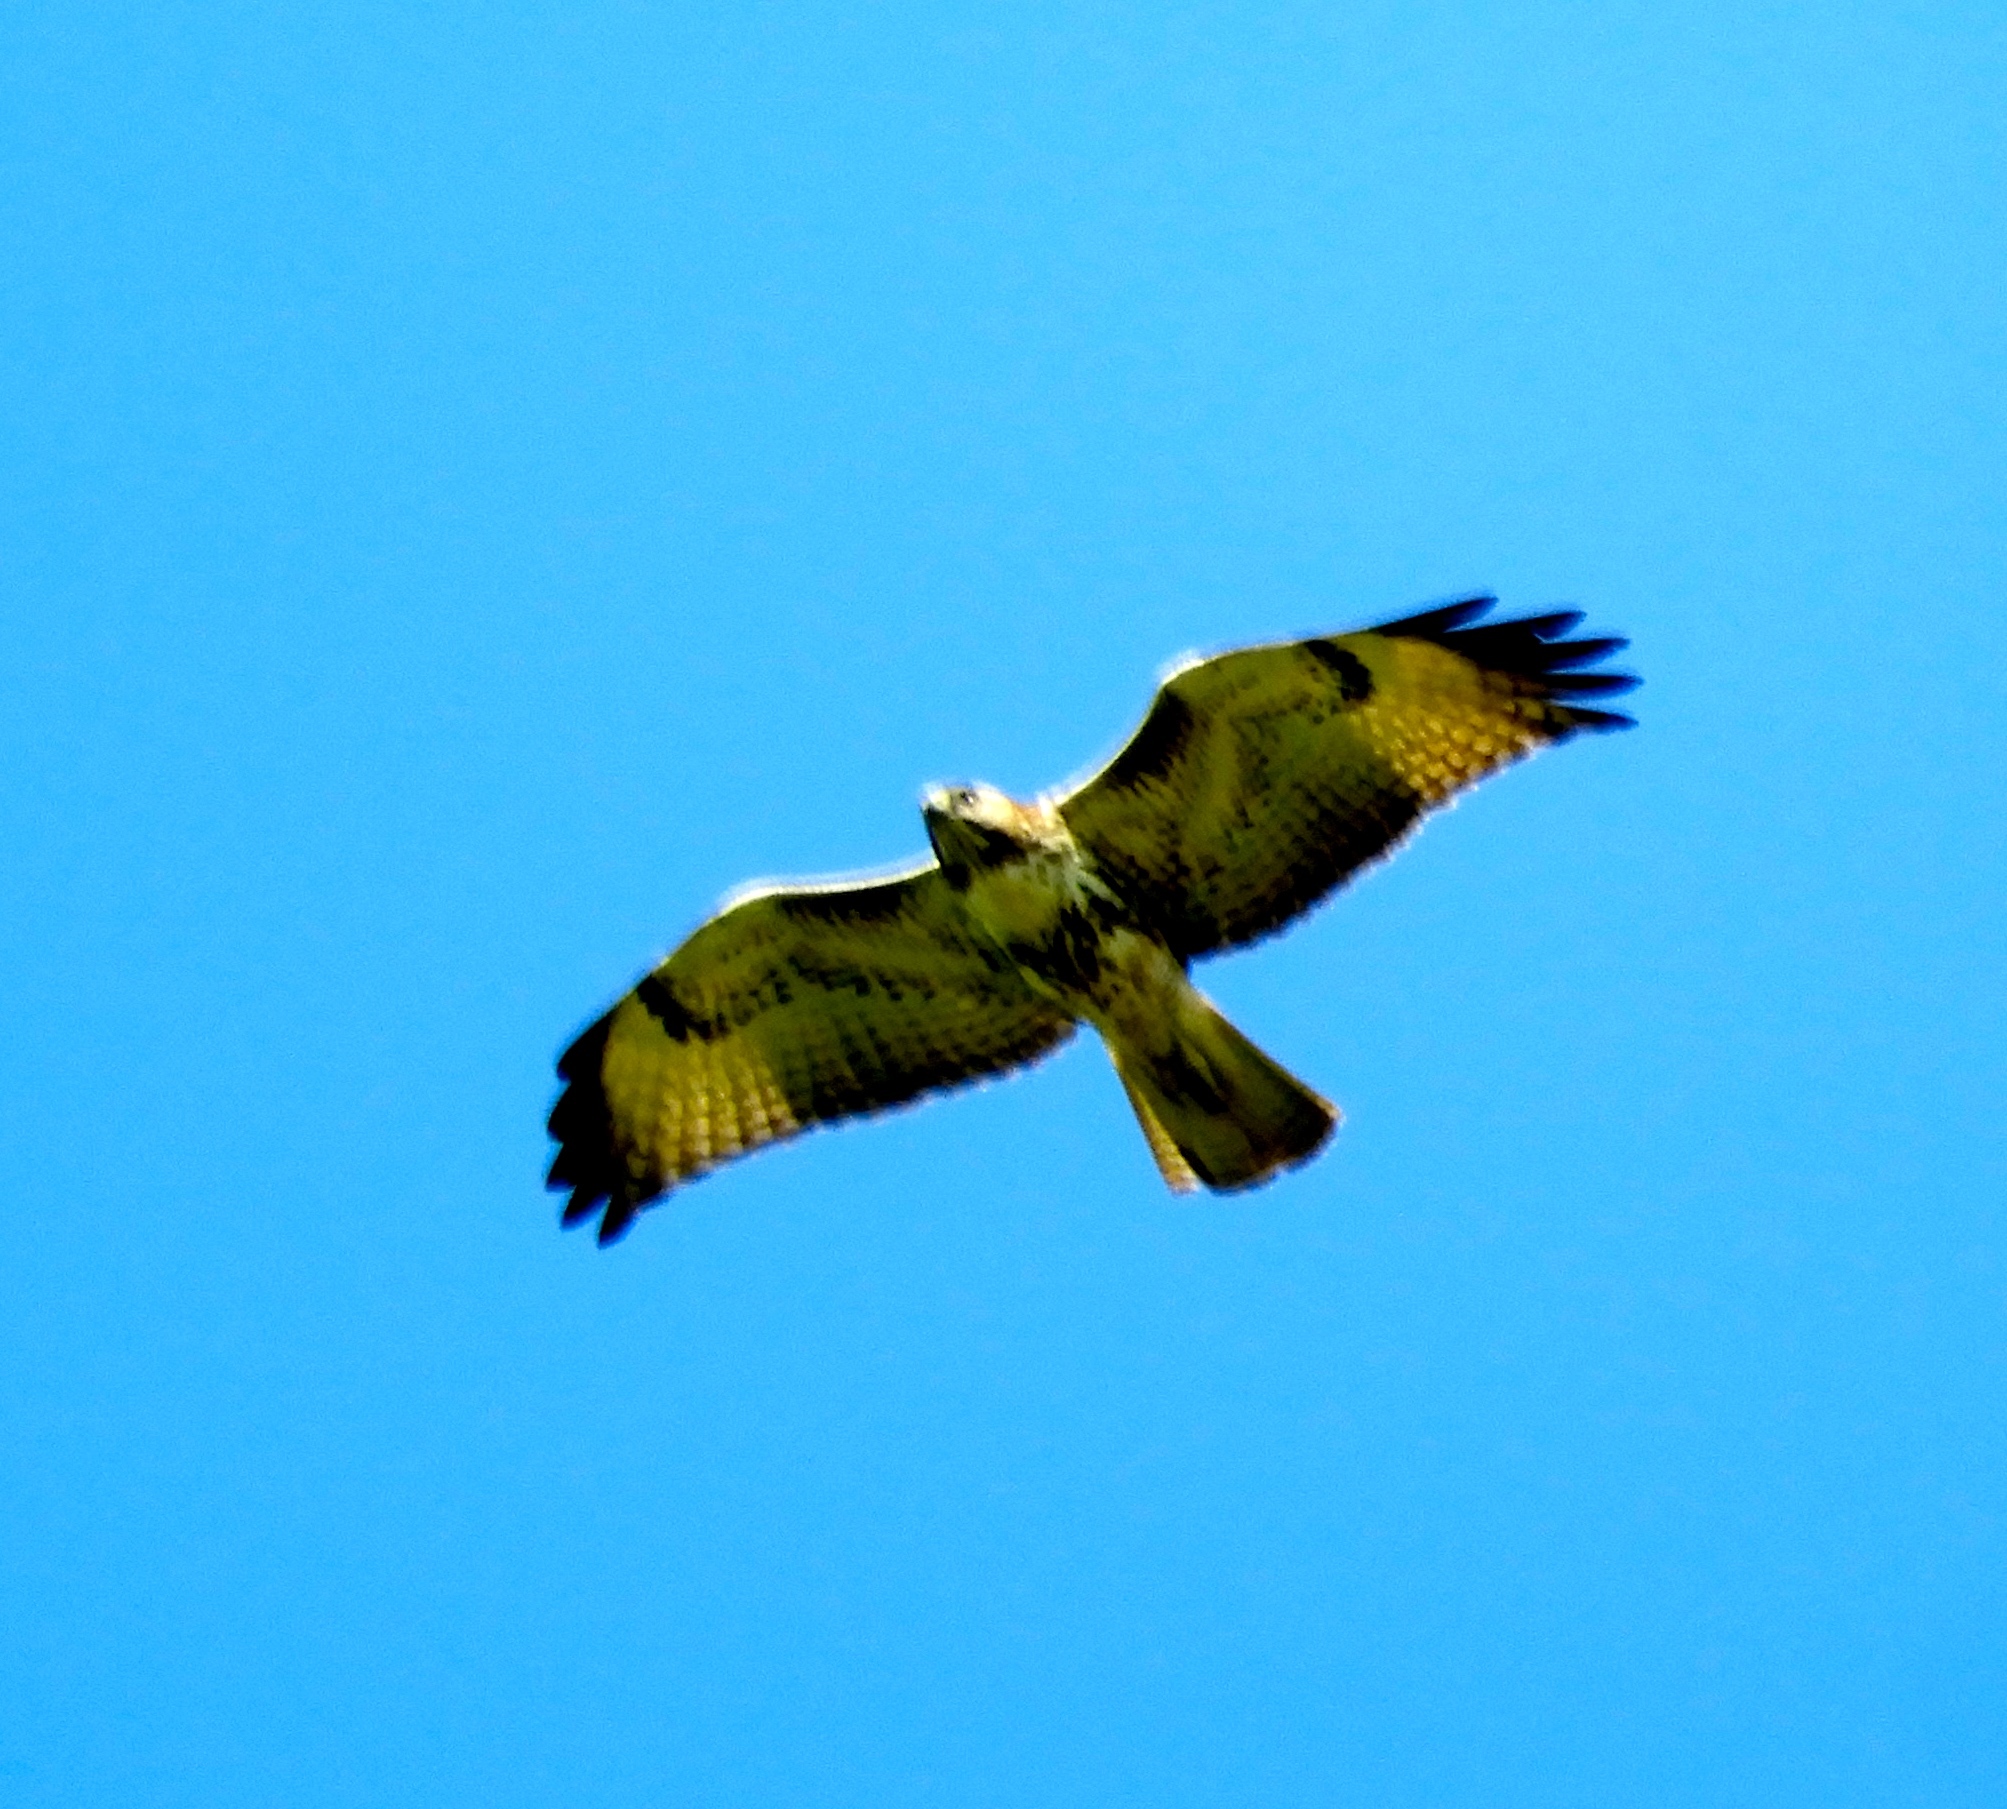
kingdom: Animalia
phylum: Chordata
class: Aves
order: Accipitriformes
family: Accipitridae
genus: Buteo
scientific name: Buteo jamaicensis
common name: Red-tailed hawk
